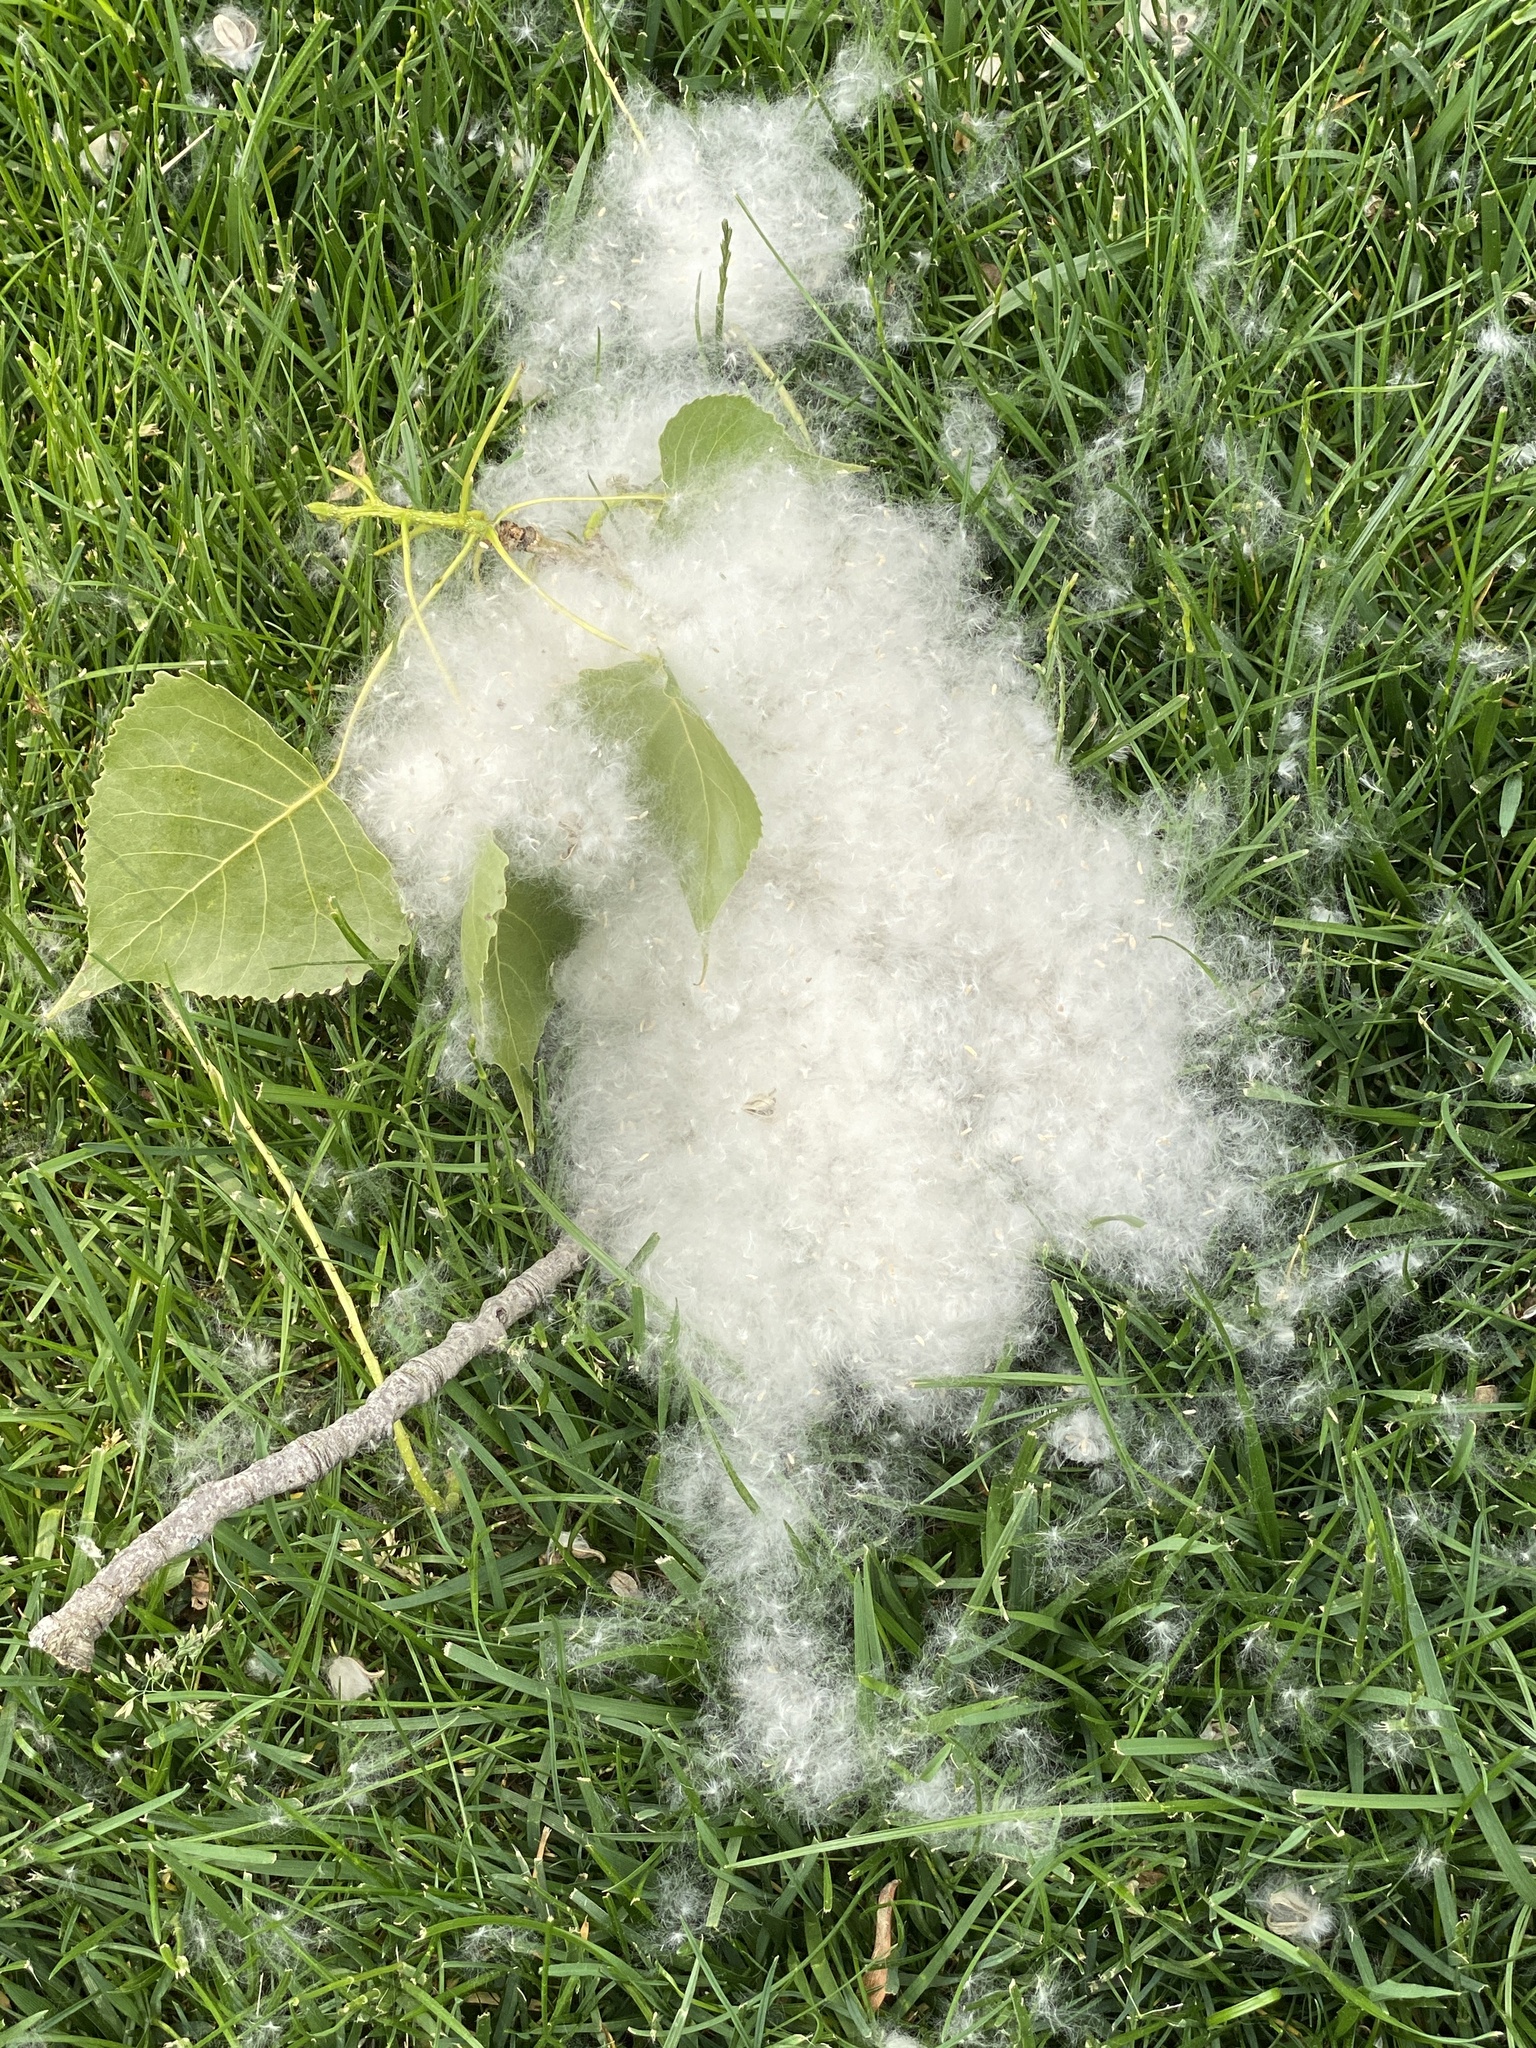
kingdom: Plantae
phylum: Tracheophyta
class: Magnoliopsida
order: Malpighiales
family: Salicaceae
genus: Populus
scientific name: Populus deltoides
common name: Eastern cottonwood
